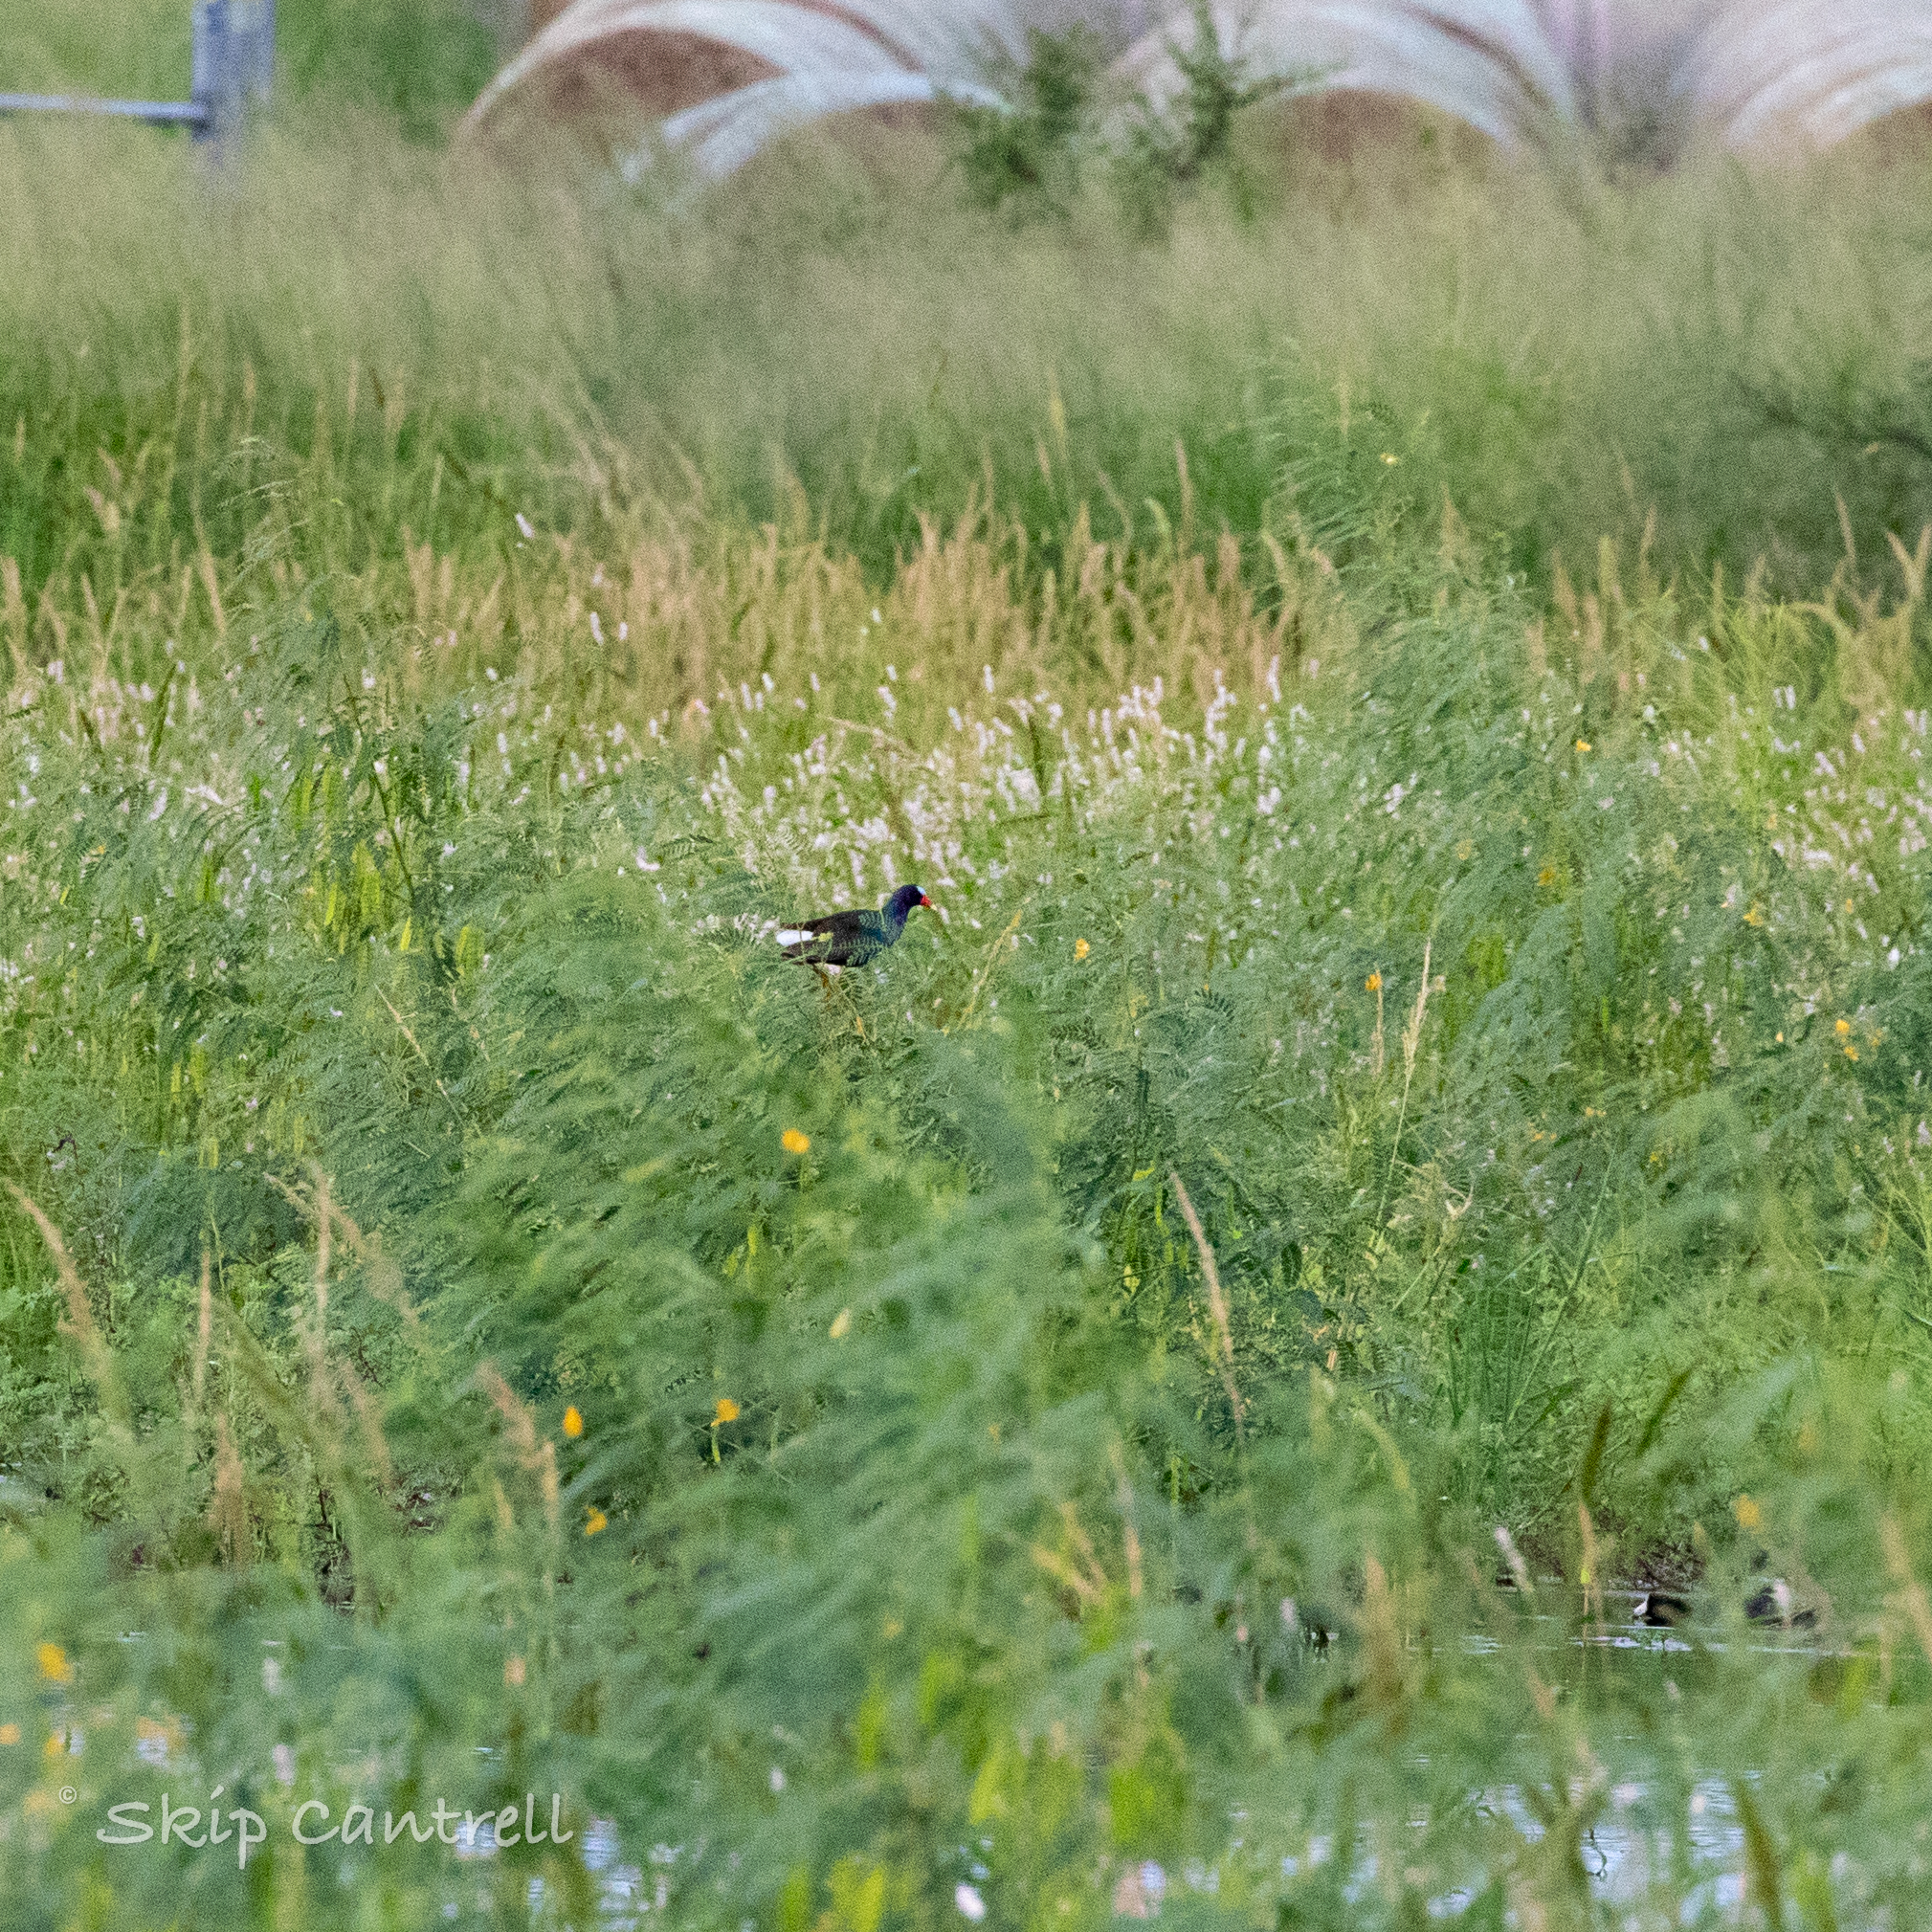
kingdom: Animalia
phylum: Chordata
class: Aves
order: Gruiformes
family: Rallidae
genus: Porphyrio
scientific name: Porphyrio martinica
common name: Purple gallinule
